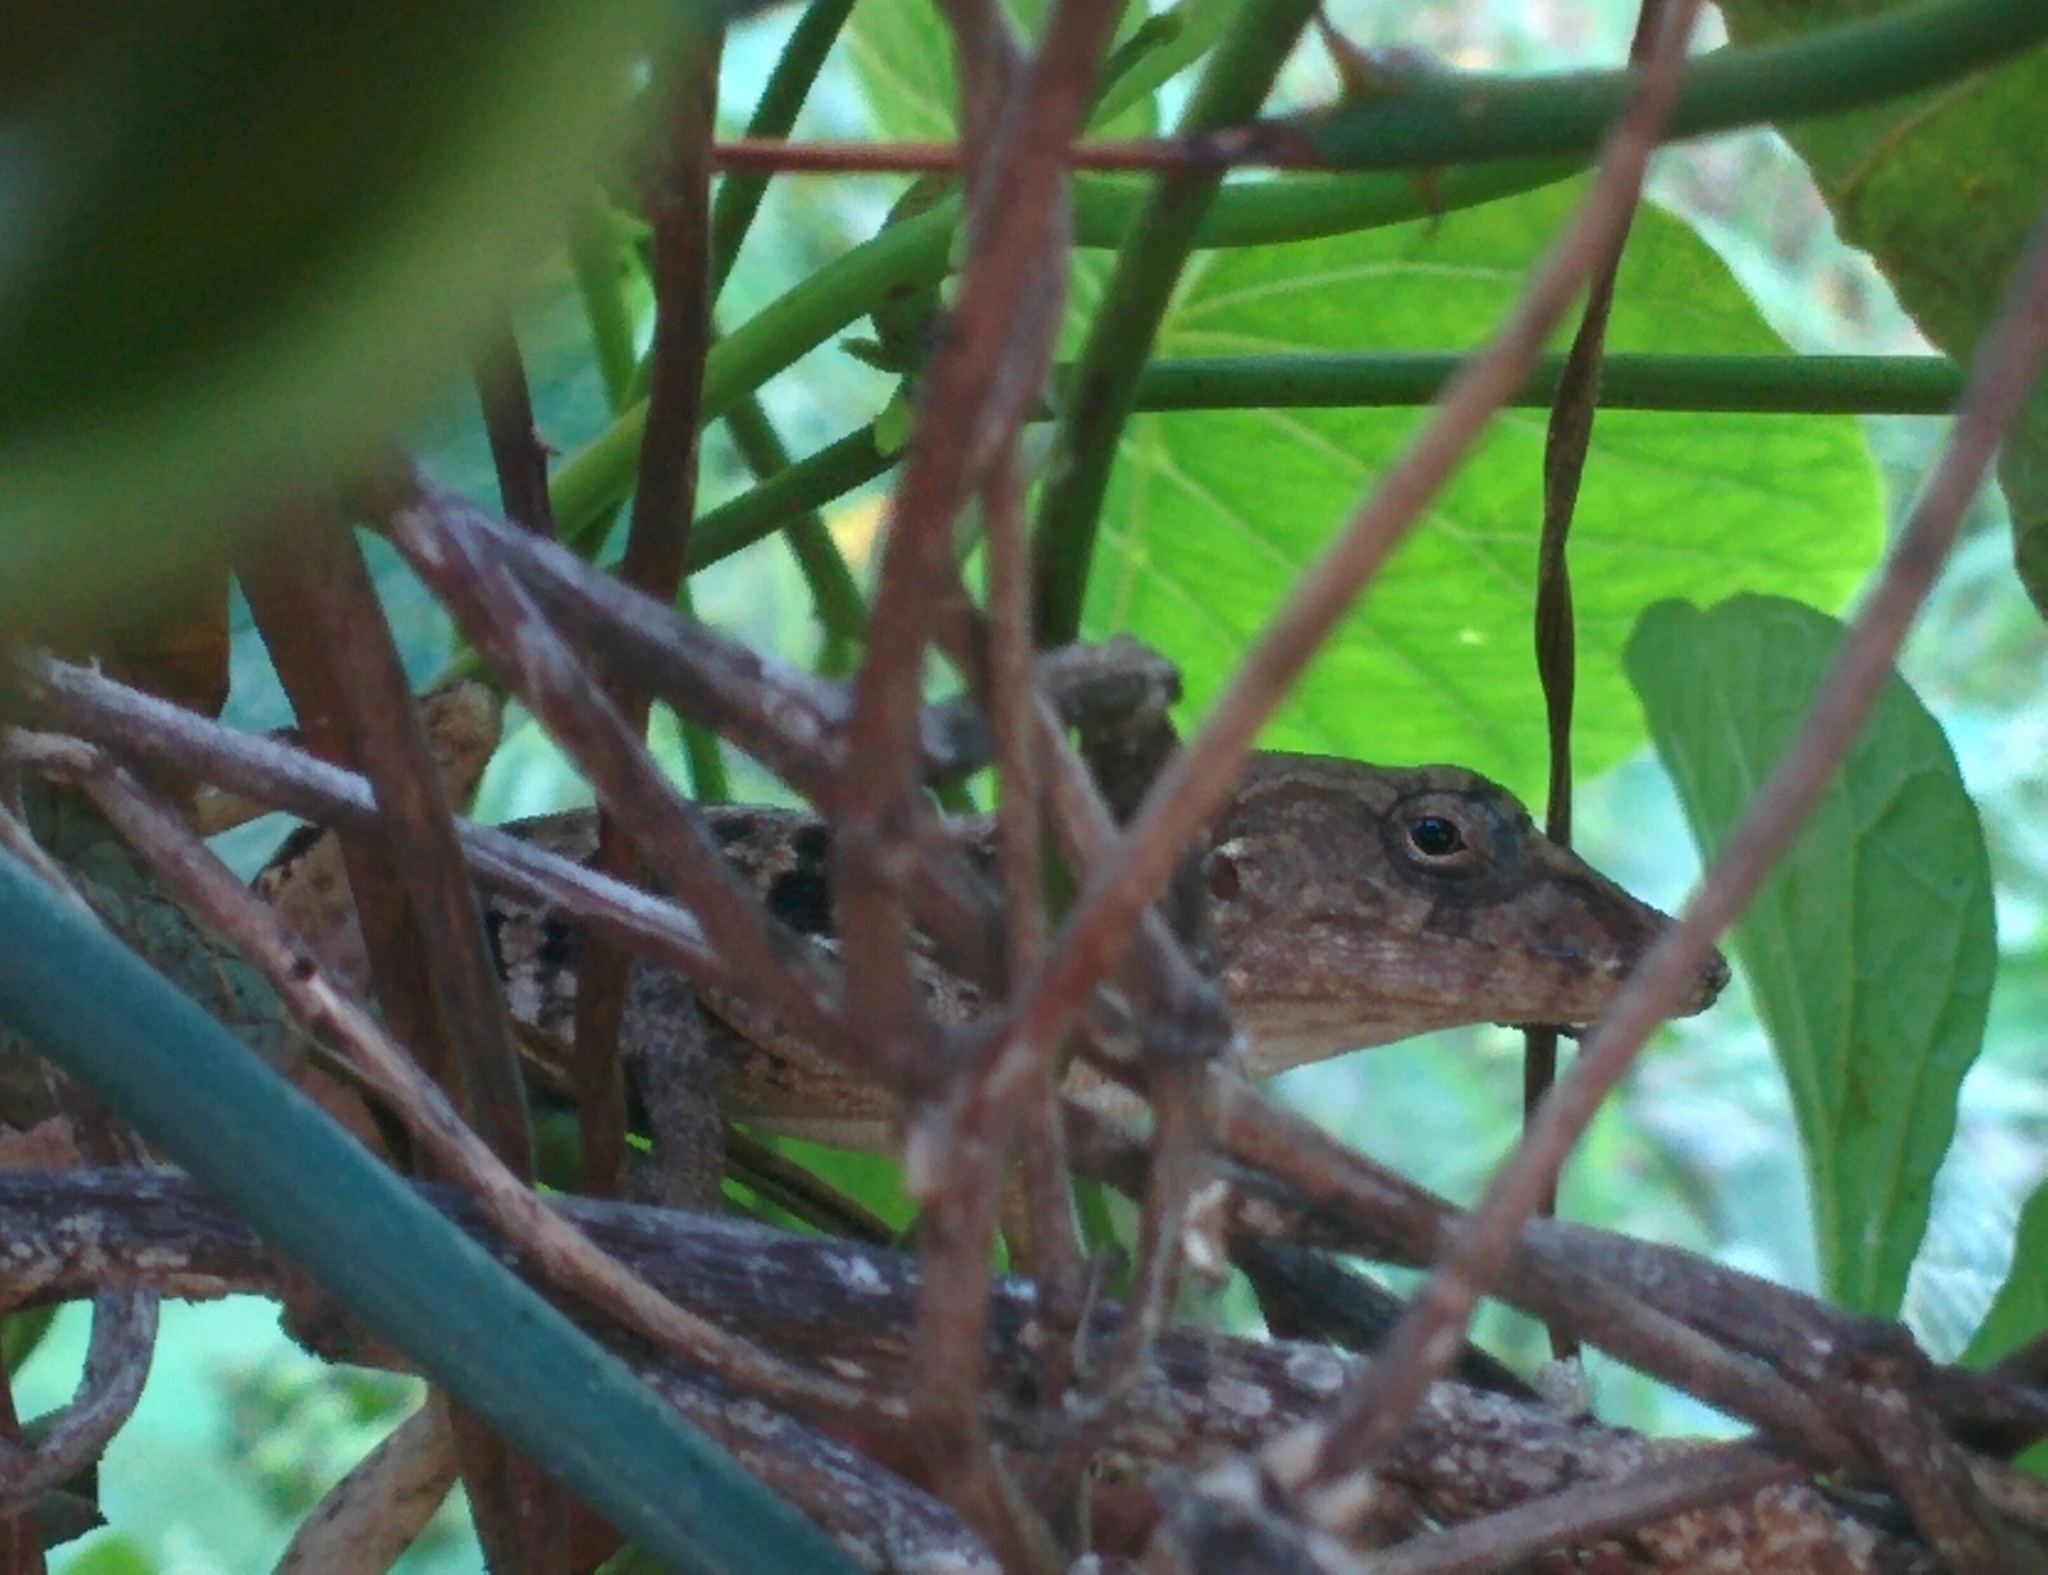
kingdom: Animalia
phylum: Chordata
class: Squamata
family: Dactyloidae
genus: Anolis
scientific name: Anolis lineatopus
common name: Stripefoot anole
